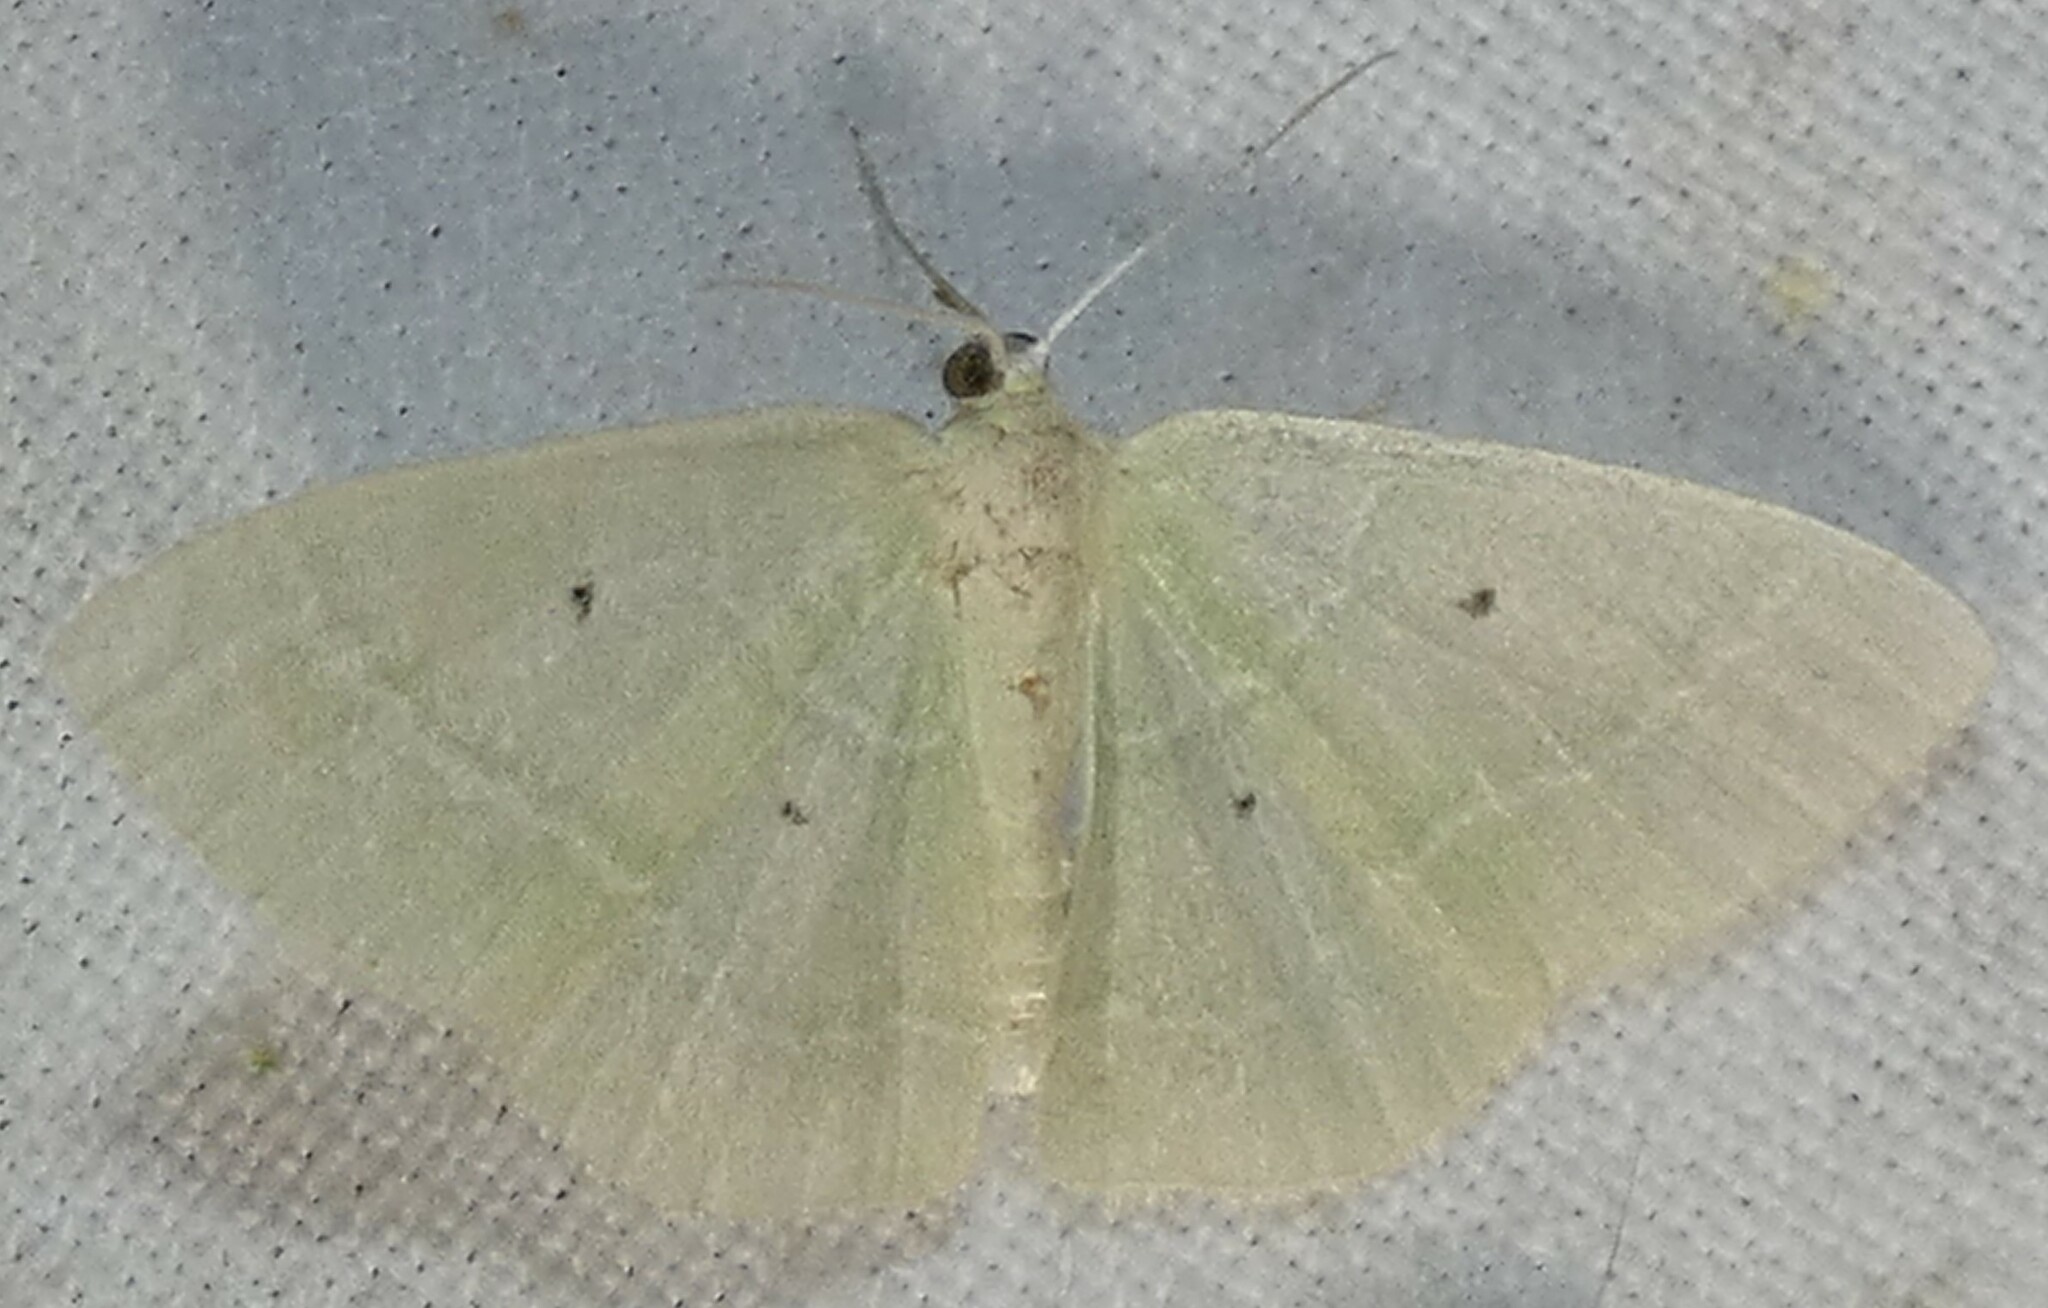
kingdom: Animalia
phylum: Arthropoda
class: Insecta
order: Lepidoptera
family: Geometridae
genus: Nemoria
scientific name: Nemoria elfa
